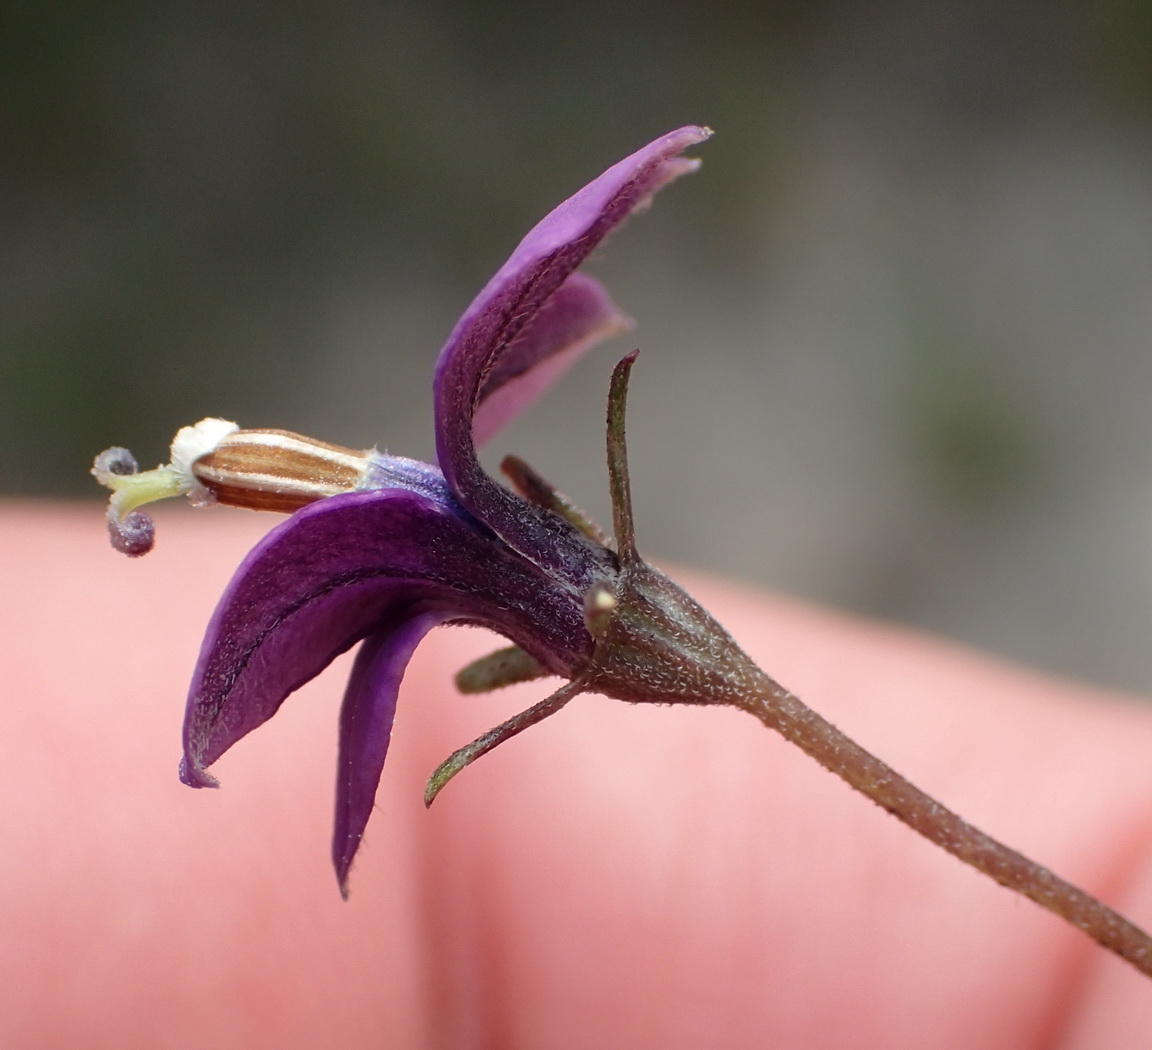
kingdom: Plantae
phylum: Tracheophyta
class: Magnoliopsida
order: Asterales
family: Campanulaceae
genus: Monopsis
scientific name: Monopsis unidentata
